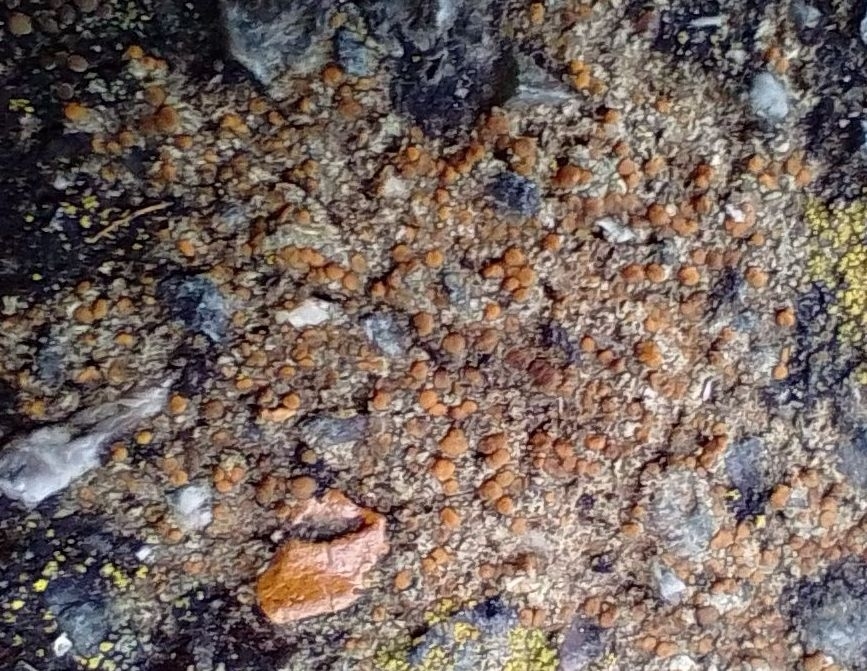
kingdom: Fungi
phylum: Ascomycota
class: Lecanoromycetes
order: Lecanorales
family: Psoraceae
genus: Protoblastenia
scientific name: Protoblastenia rupestris
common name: Chewing gum lichen
